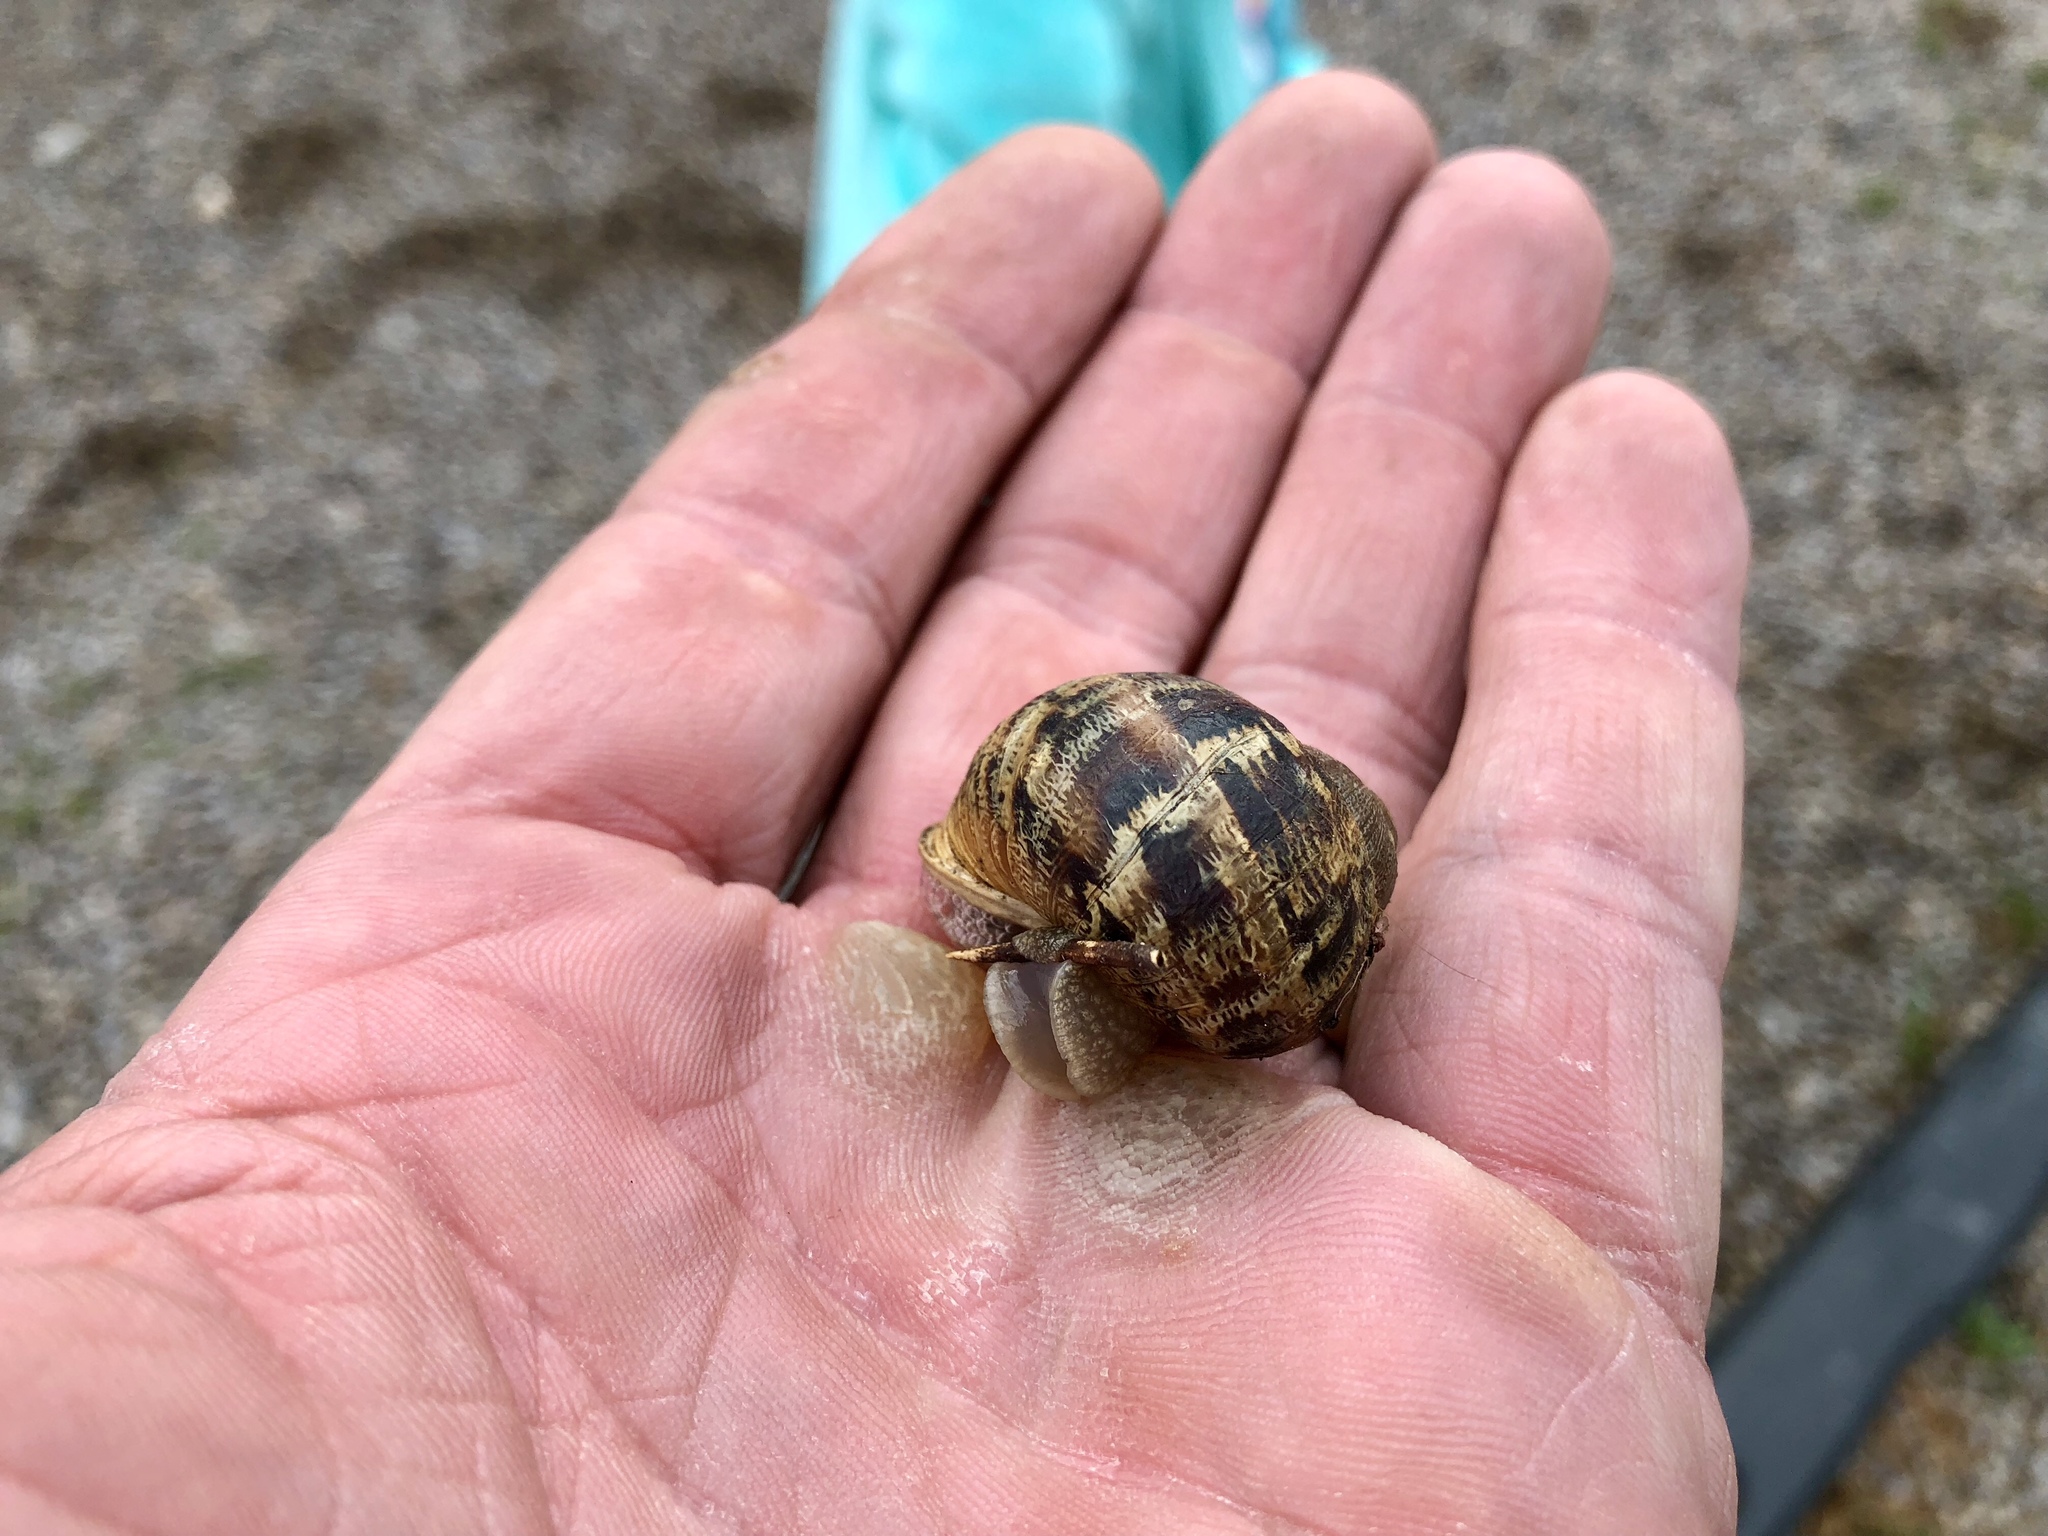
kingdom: Animalia
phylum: Mollusca
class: Gastropoda
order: Stylommatophora
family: Helicidae
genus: Cornu
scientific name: Cornu aspersum
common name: Brown garden snail
